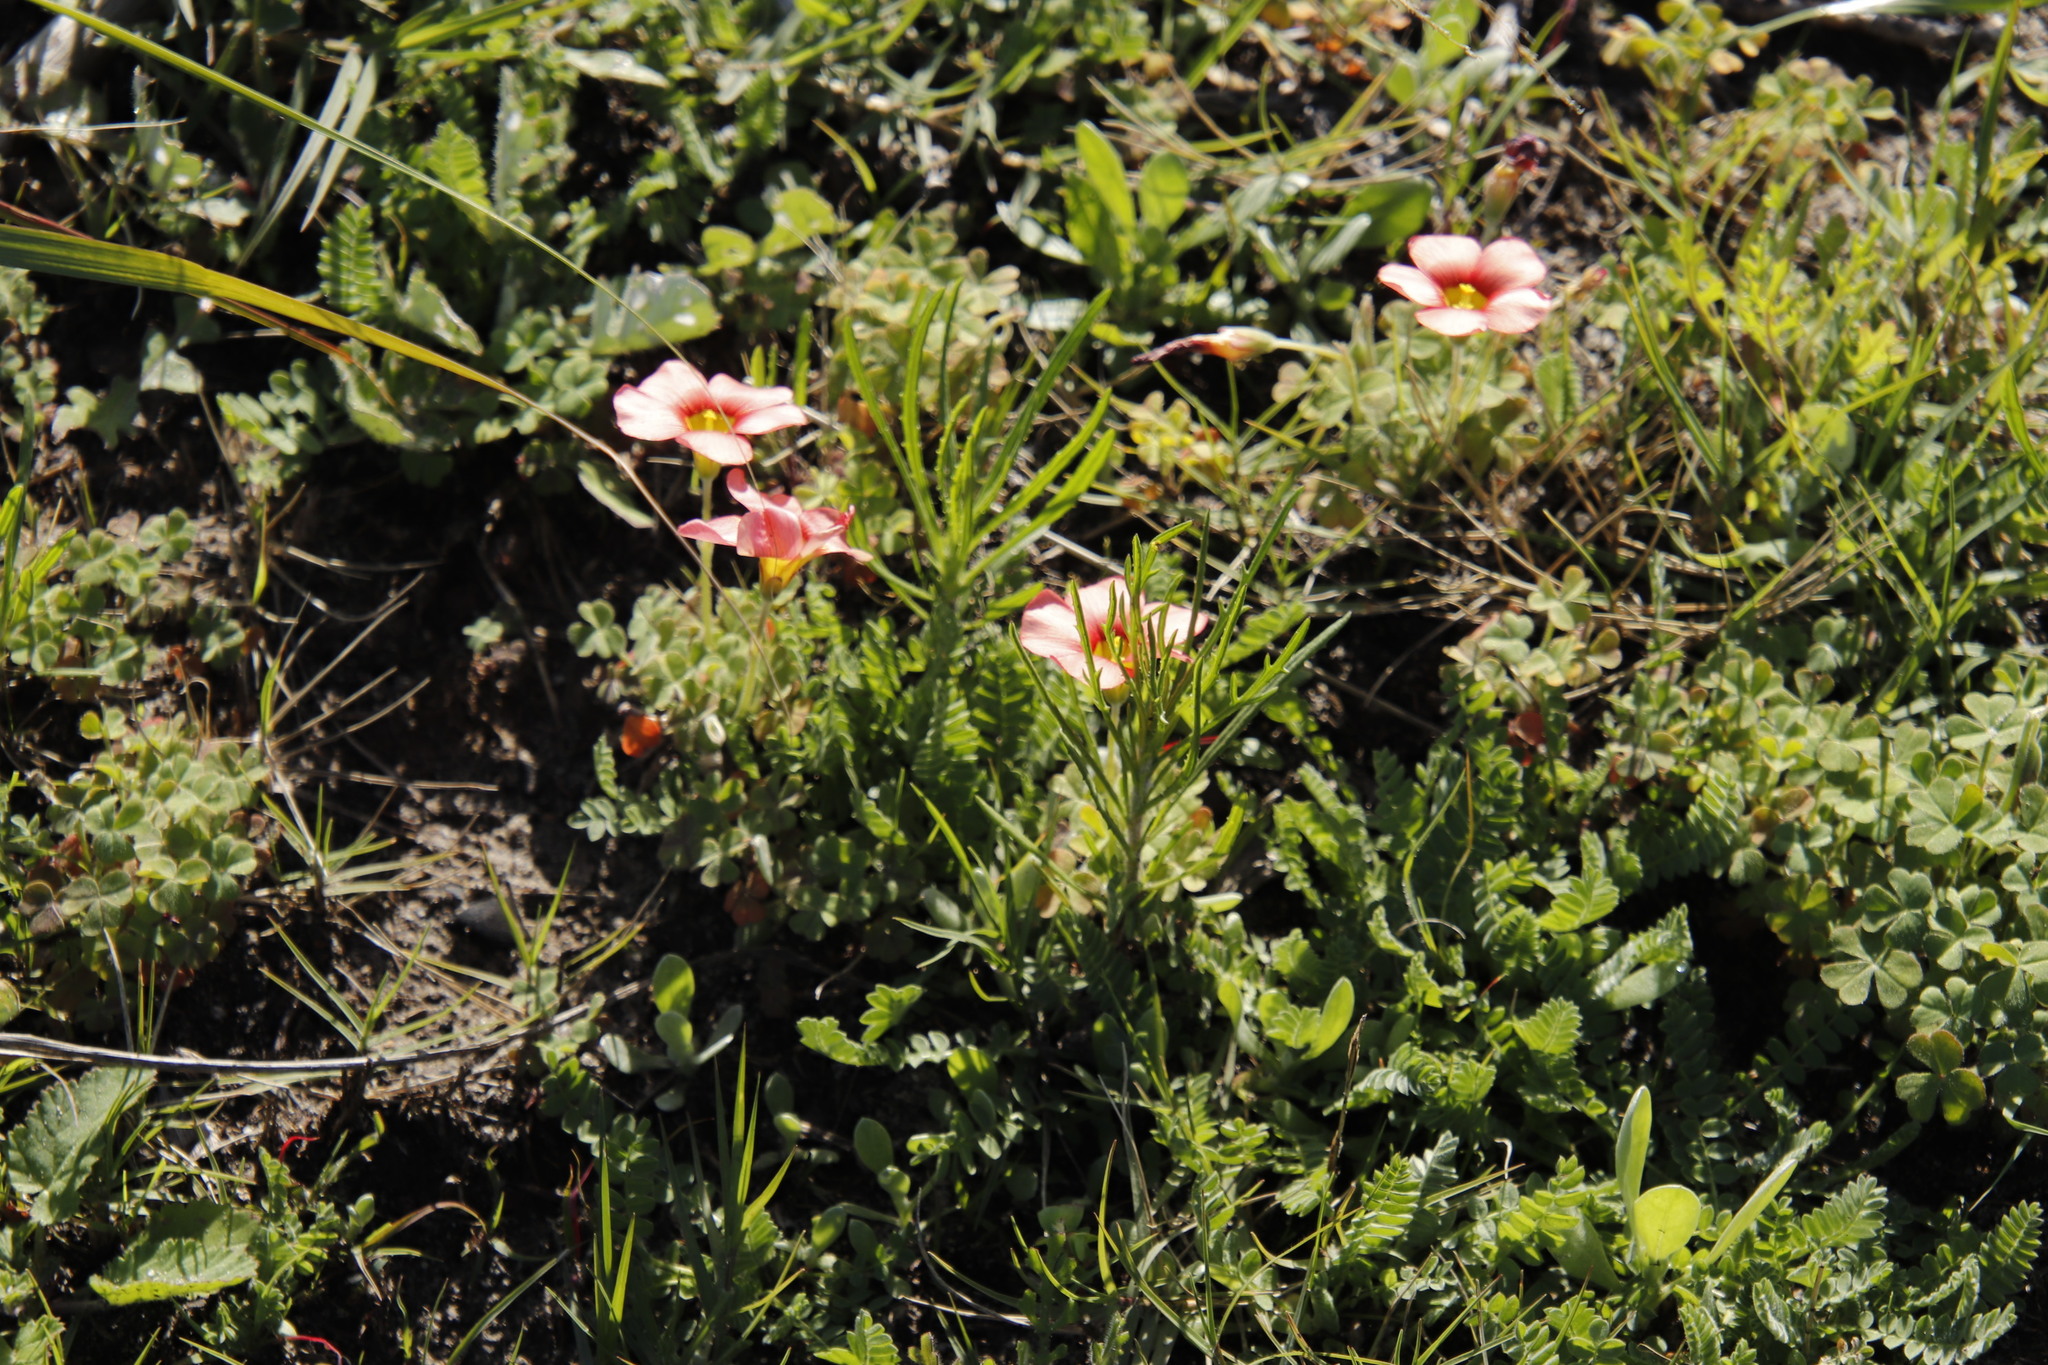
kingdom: Plantae
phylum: Tracheophyta
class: Magnoliopsida
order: Oxalidales
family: Oxalidaceae
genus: Oxalis
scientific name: Oxalis obtusa
